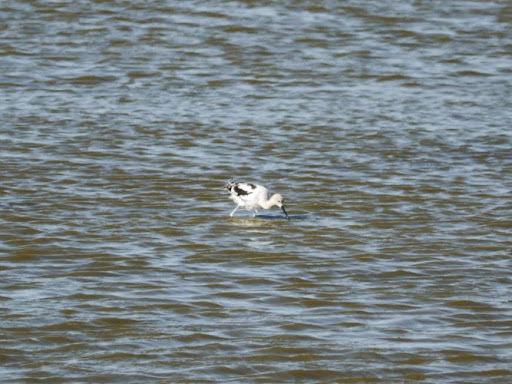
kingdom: Animalia
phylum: Chordata
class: Aves
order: Charadriiformes
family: Recurvirostridae
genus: Recurvirostra
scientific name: Recurvirostra americana
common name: American avocet
